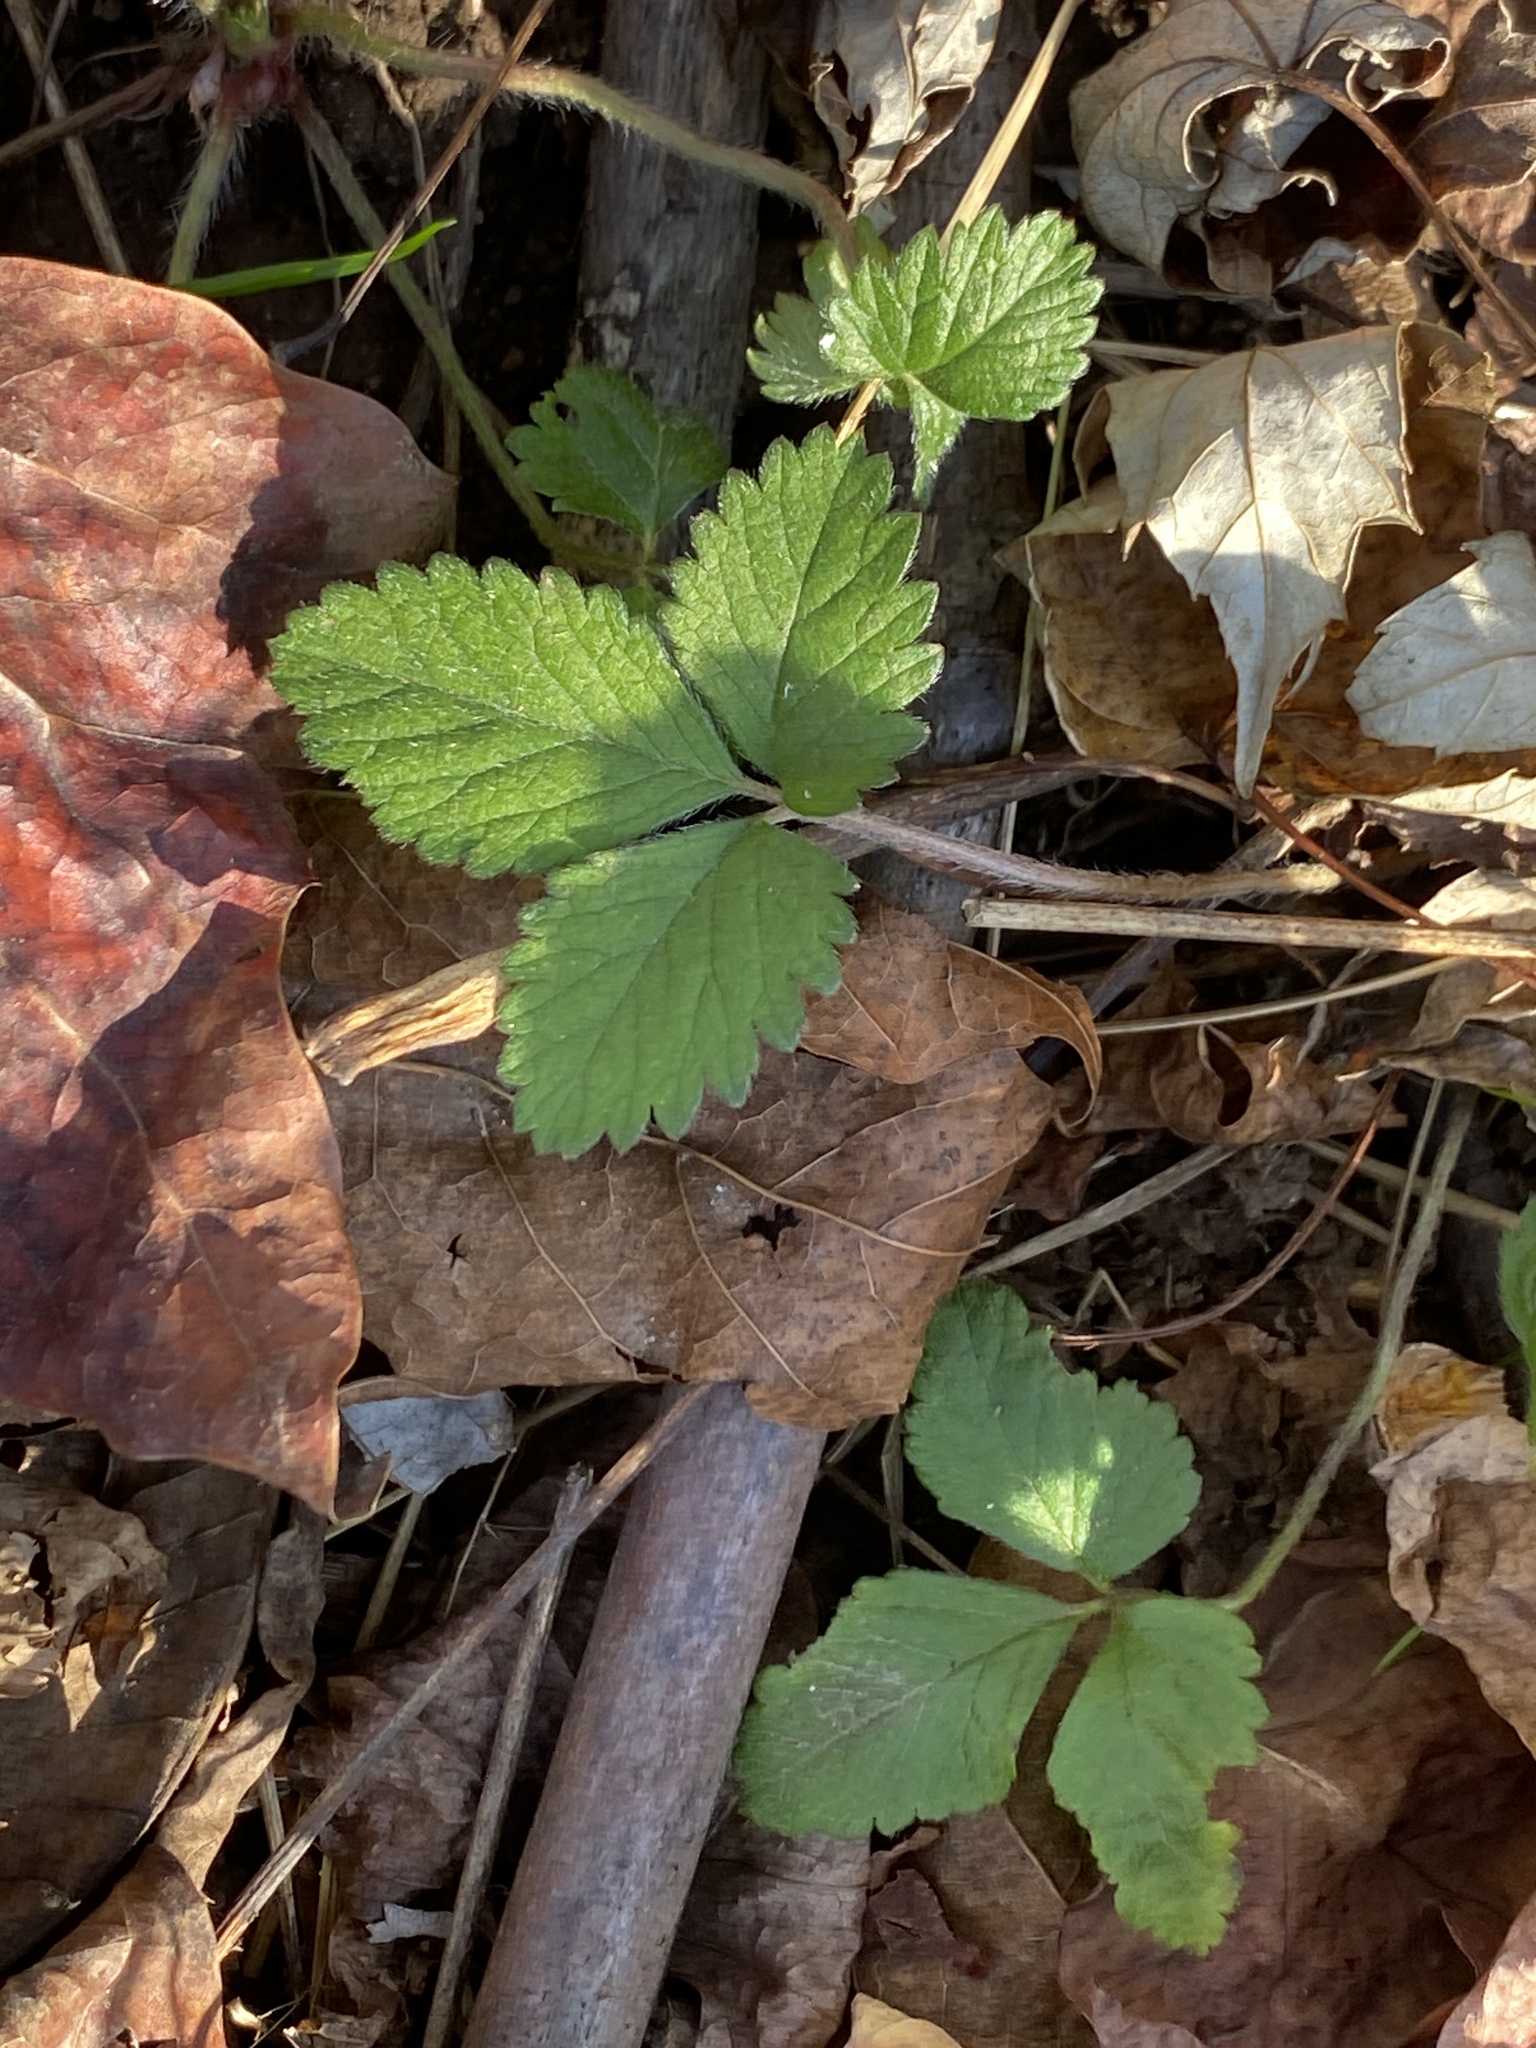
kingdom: Plantae
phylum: Tracheophyta
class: Magnoliopsida
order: Rosales
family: Rosaceae
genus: Potentilla
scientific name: Potentilla indica
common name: Yellow-flowered strawberry
